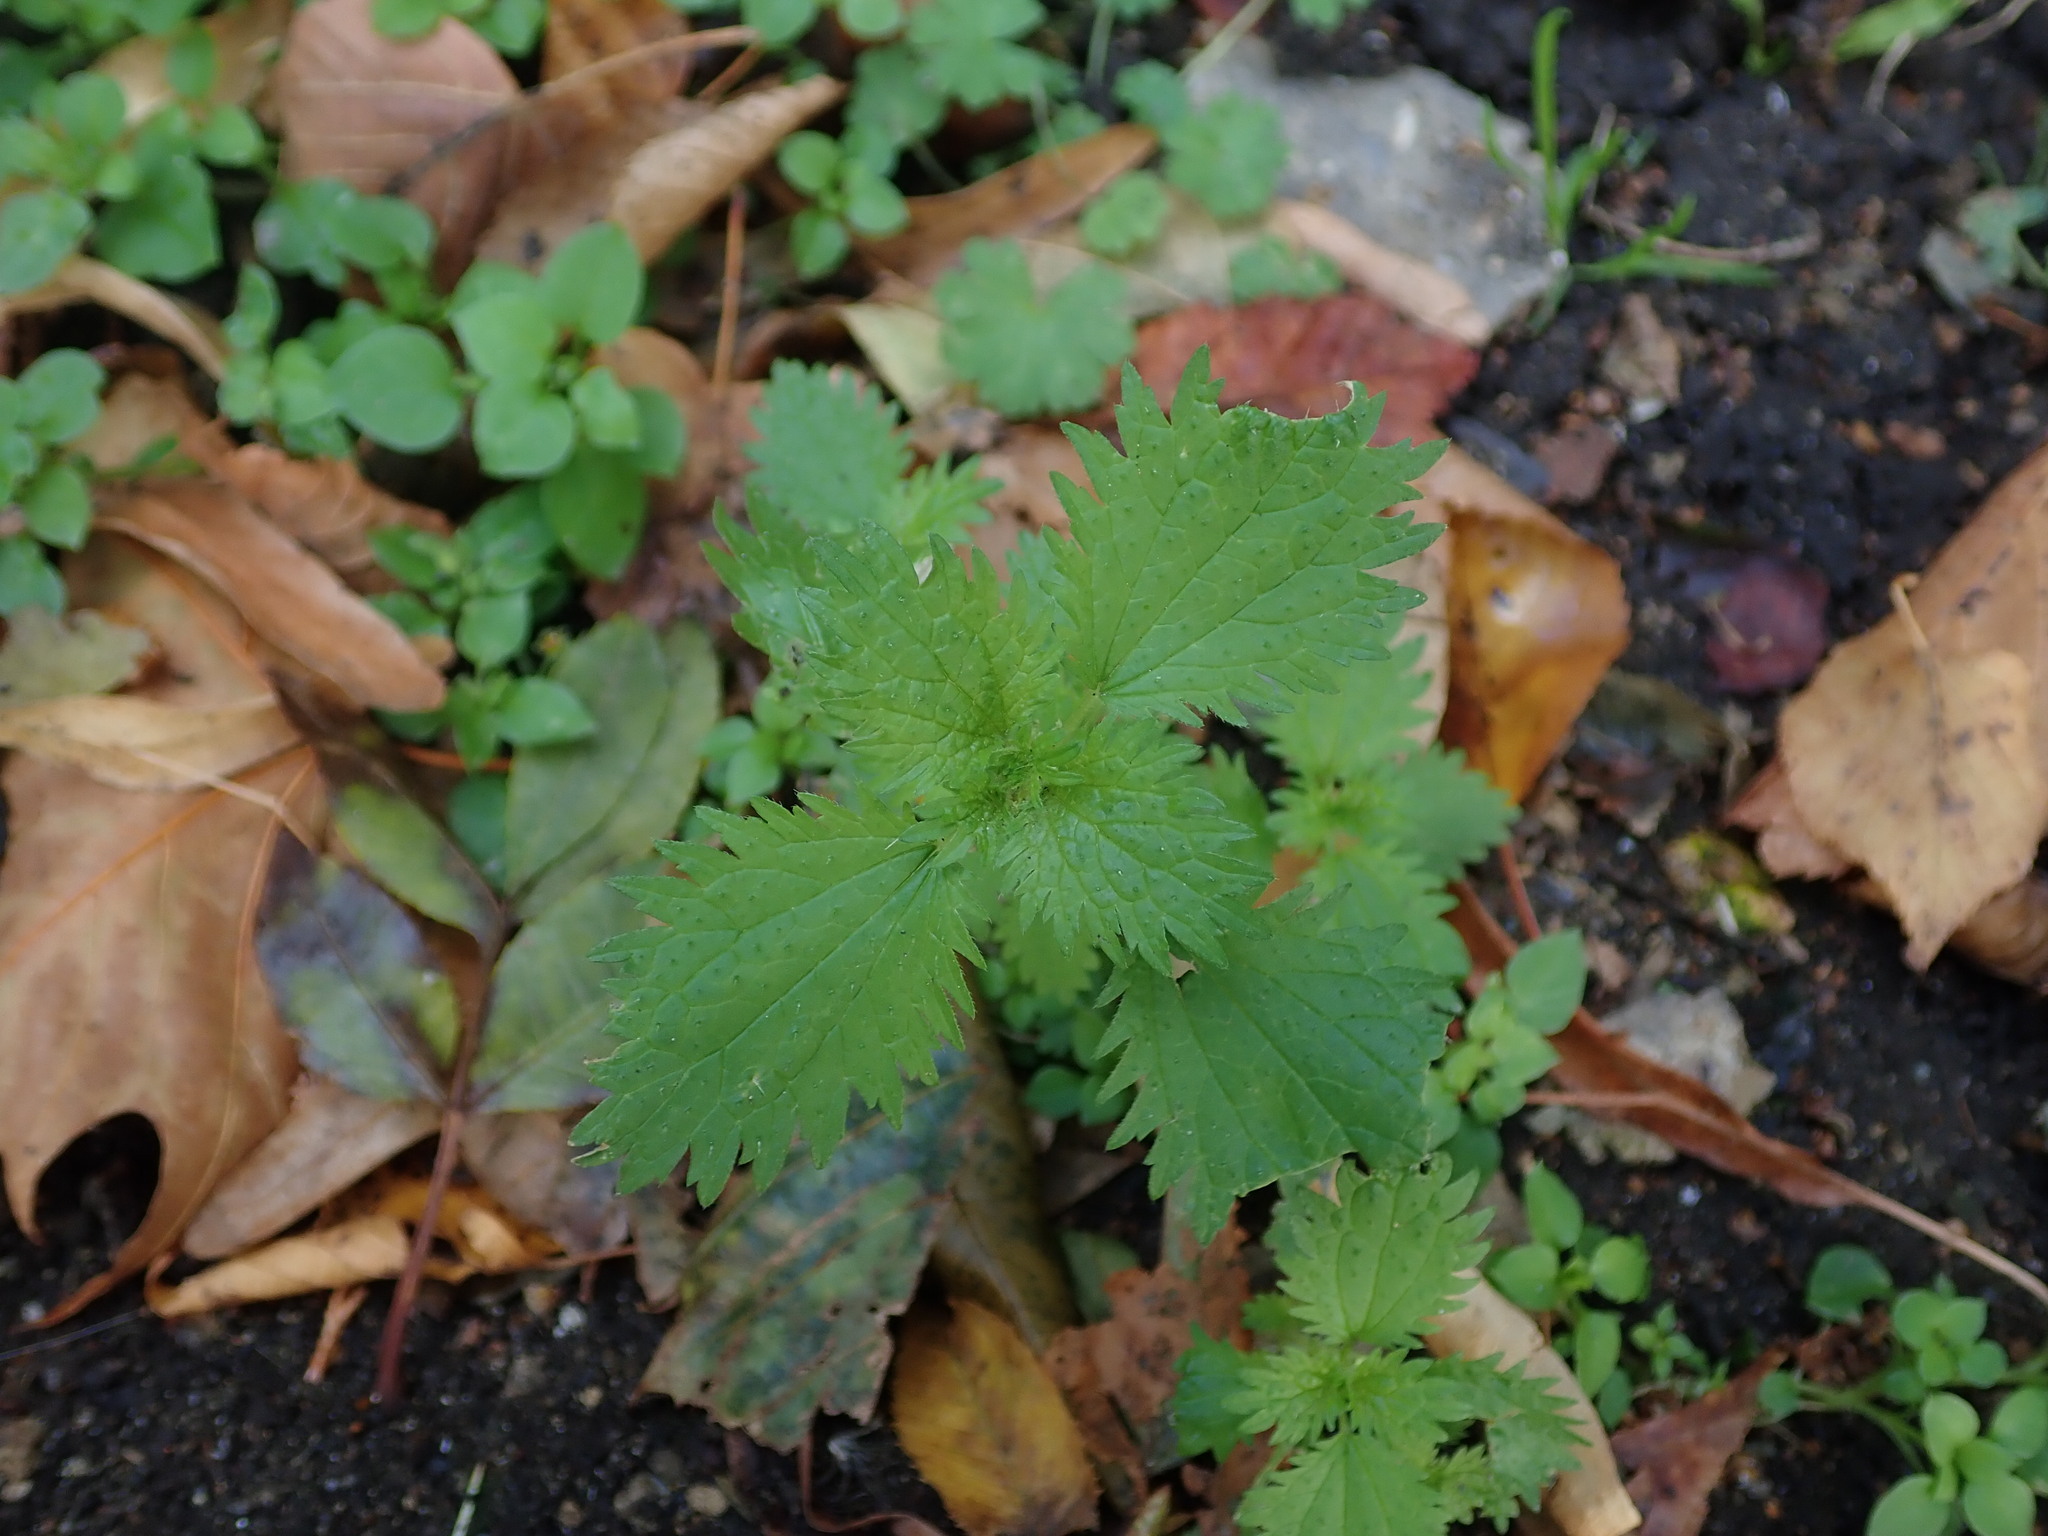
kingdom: Plantae
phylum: Tracheophyta
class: Magnoliopsida
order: Rosales
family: Urticaceae
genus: Urtica
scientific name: Urtica urens
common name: Dwarf nettle
